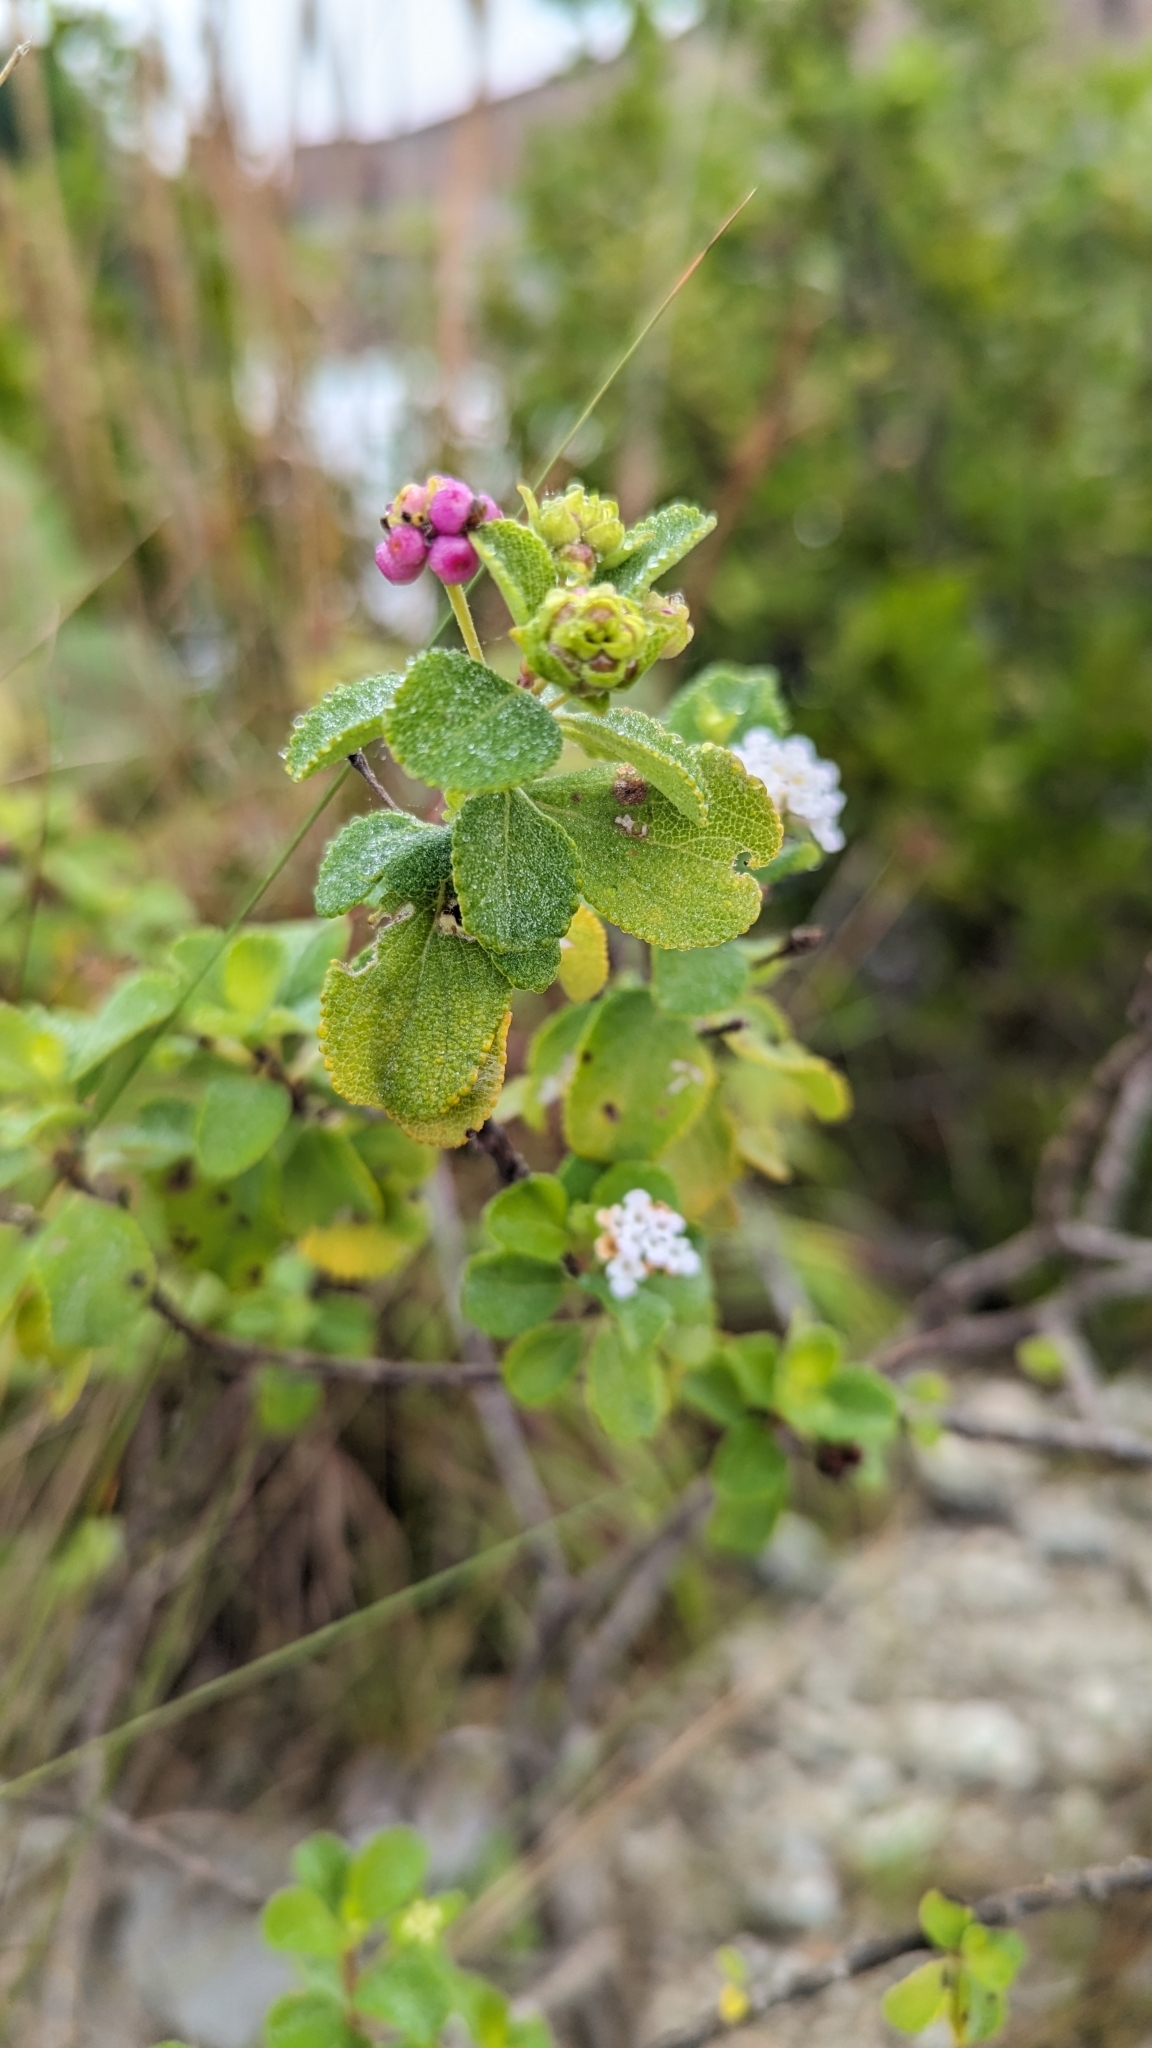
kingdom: Plantae
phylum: Tracheophyta
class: Magnoliopsida
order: Lamiales
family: Verbenaceae
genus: Lantana
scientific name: Lantana involucrata
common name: Black sage
